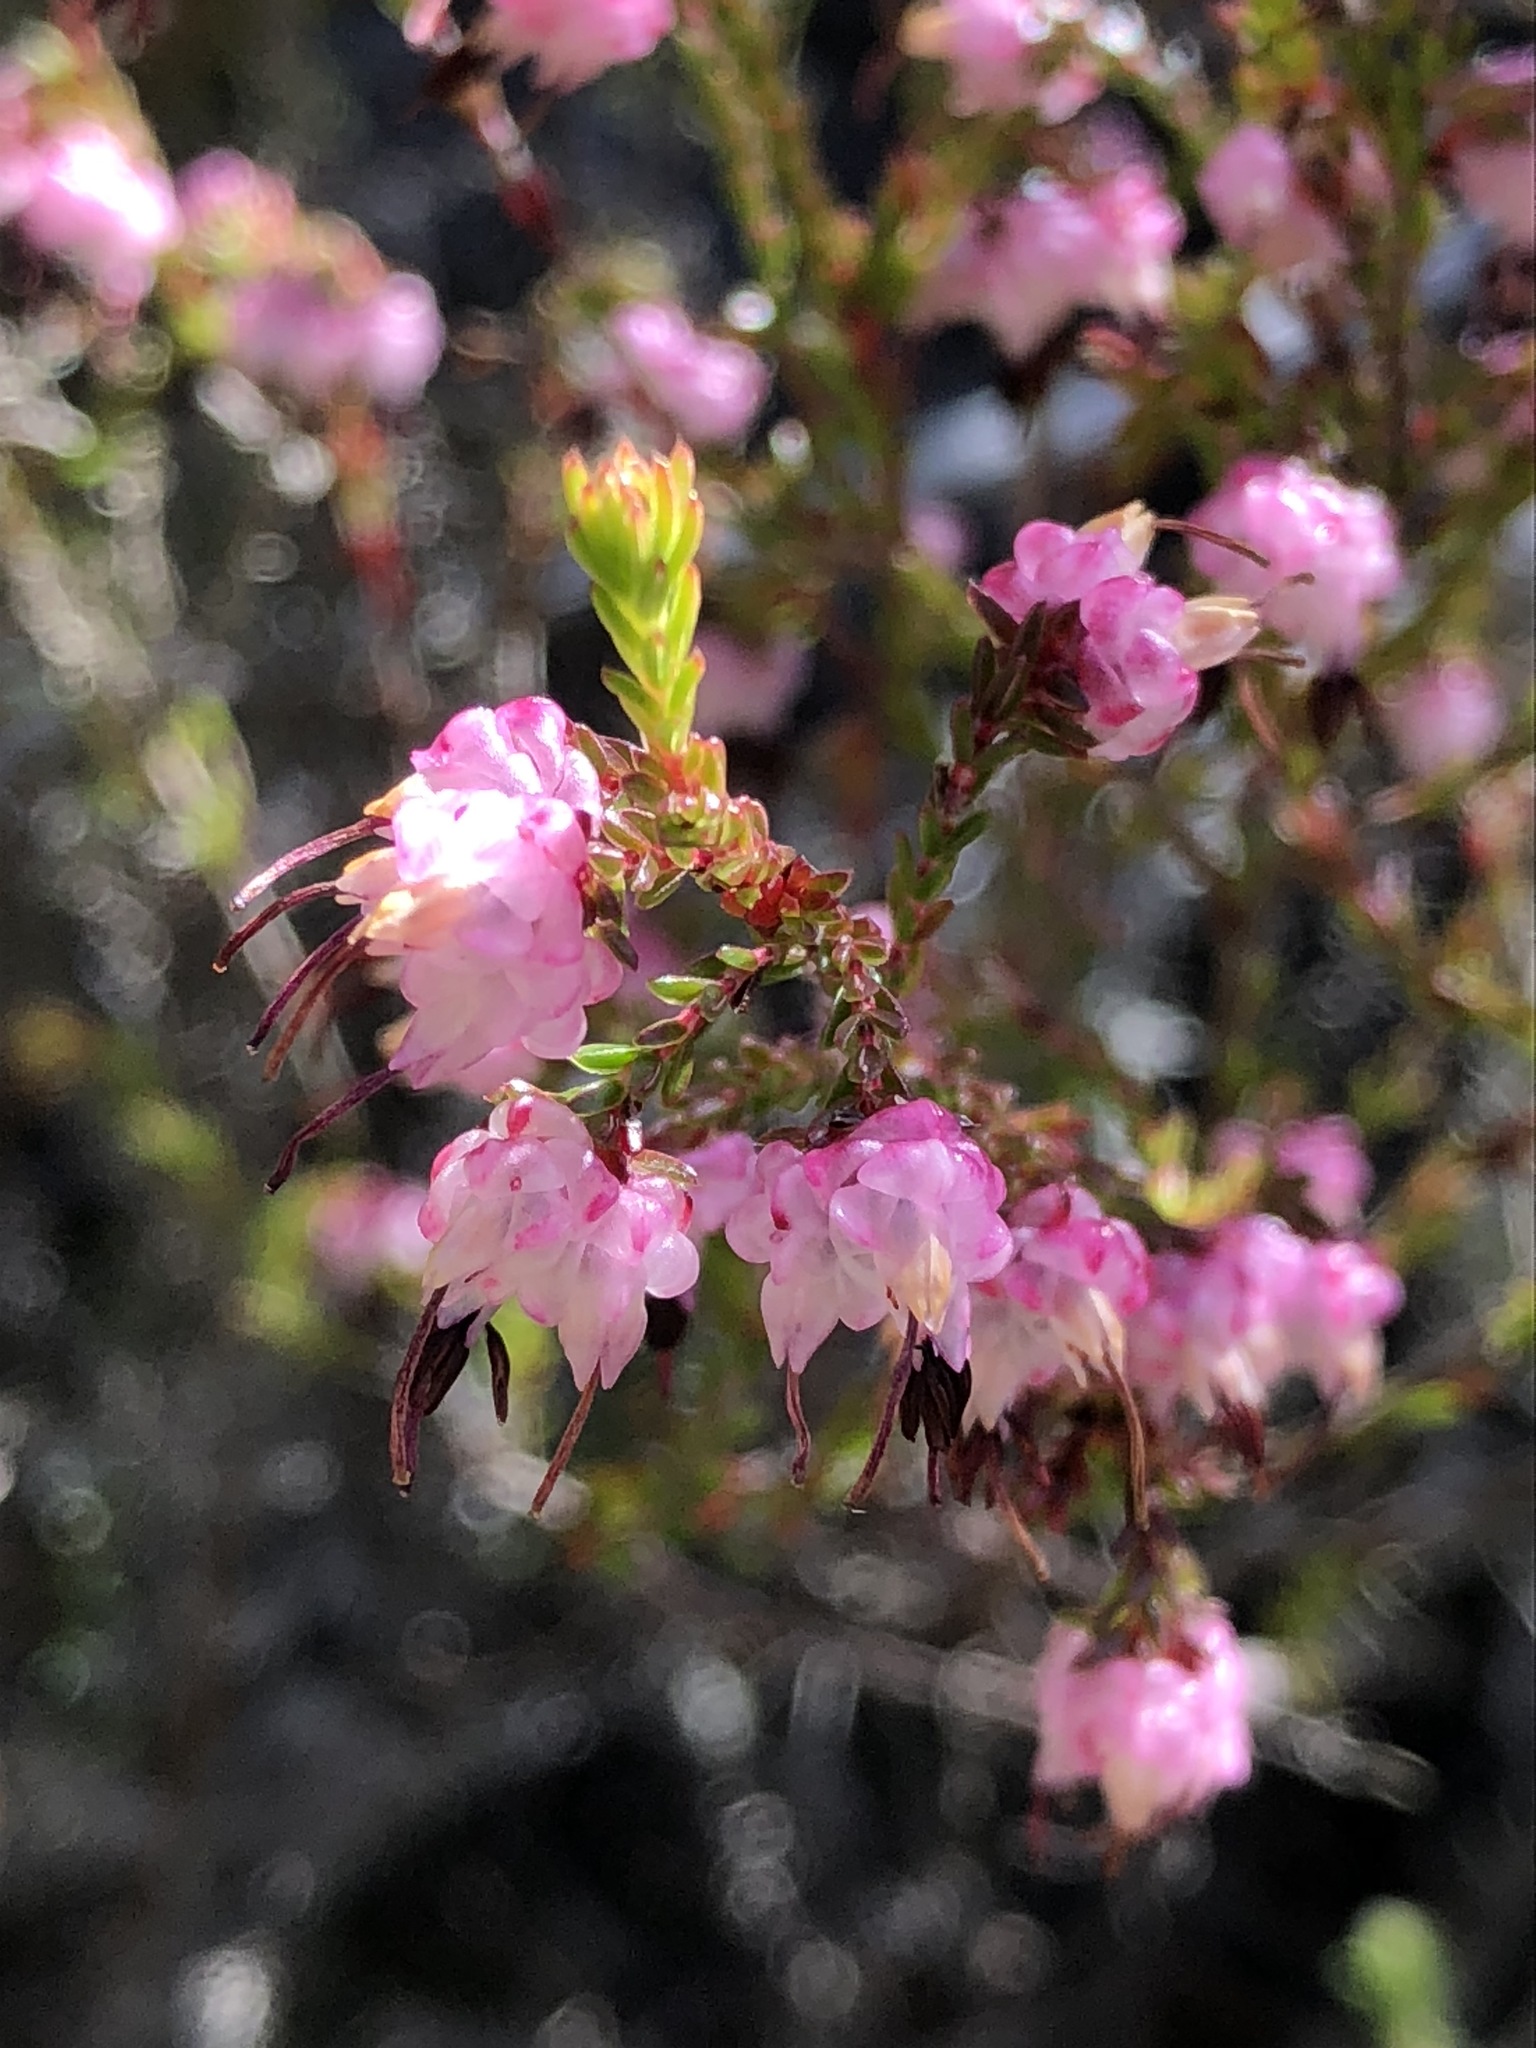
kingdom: Plantae
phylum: Tracheophyta
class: Magnoliopsida
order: Ericales
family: Ericaceae
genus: Erica
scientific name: Erica spumosa
